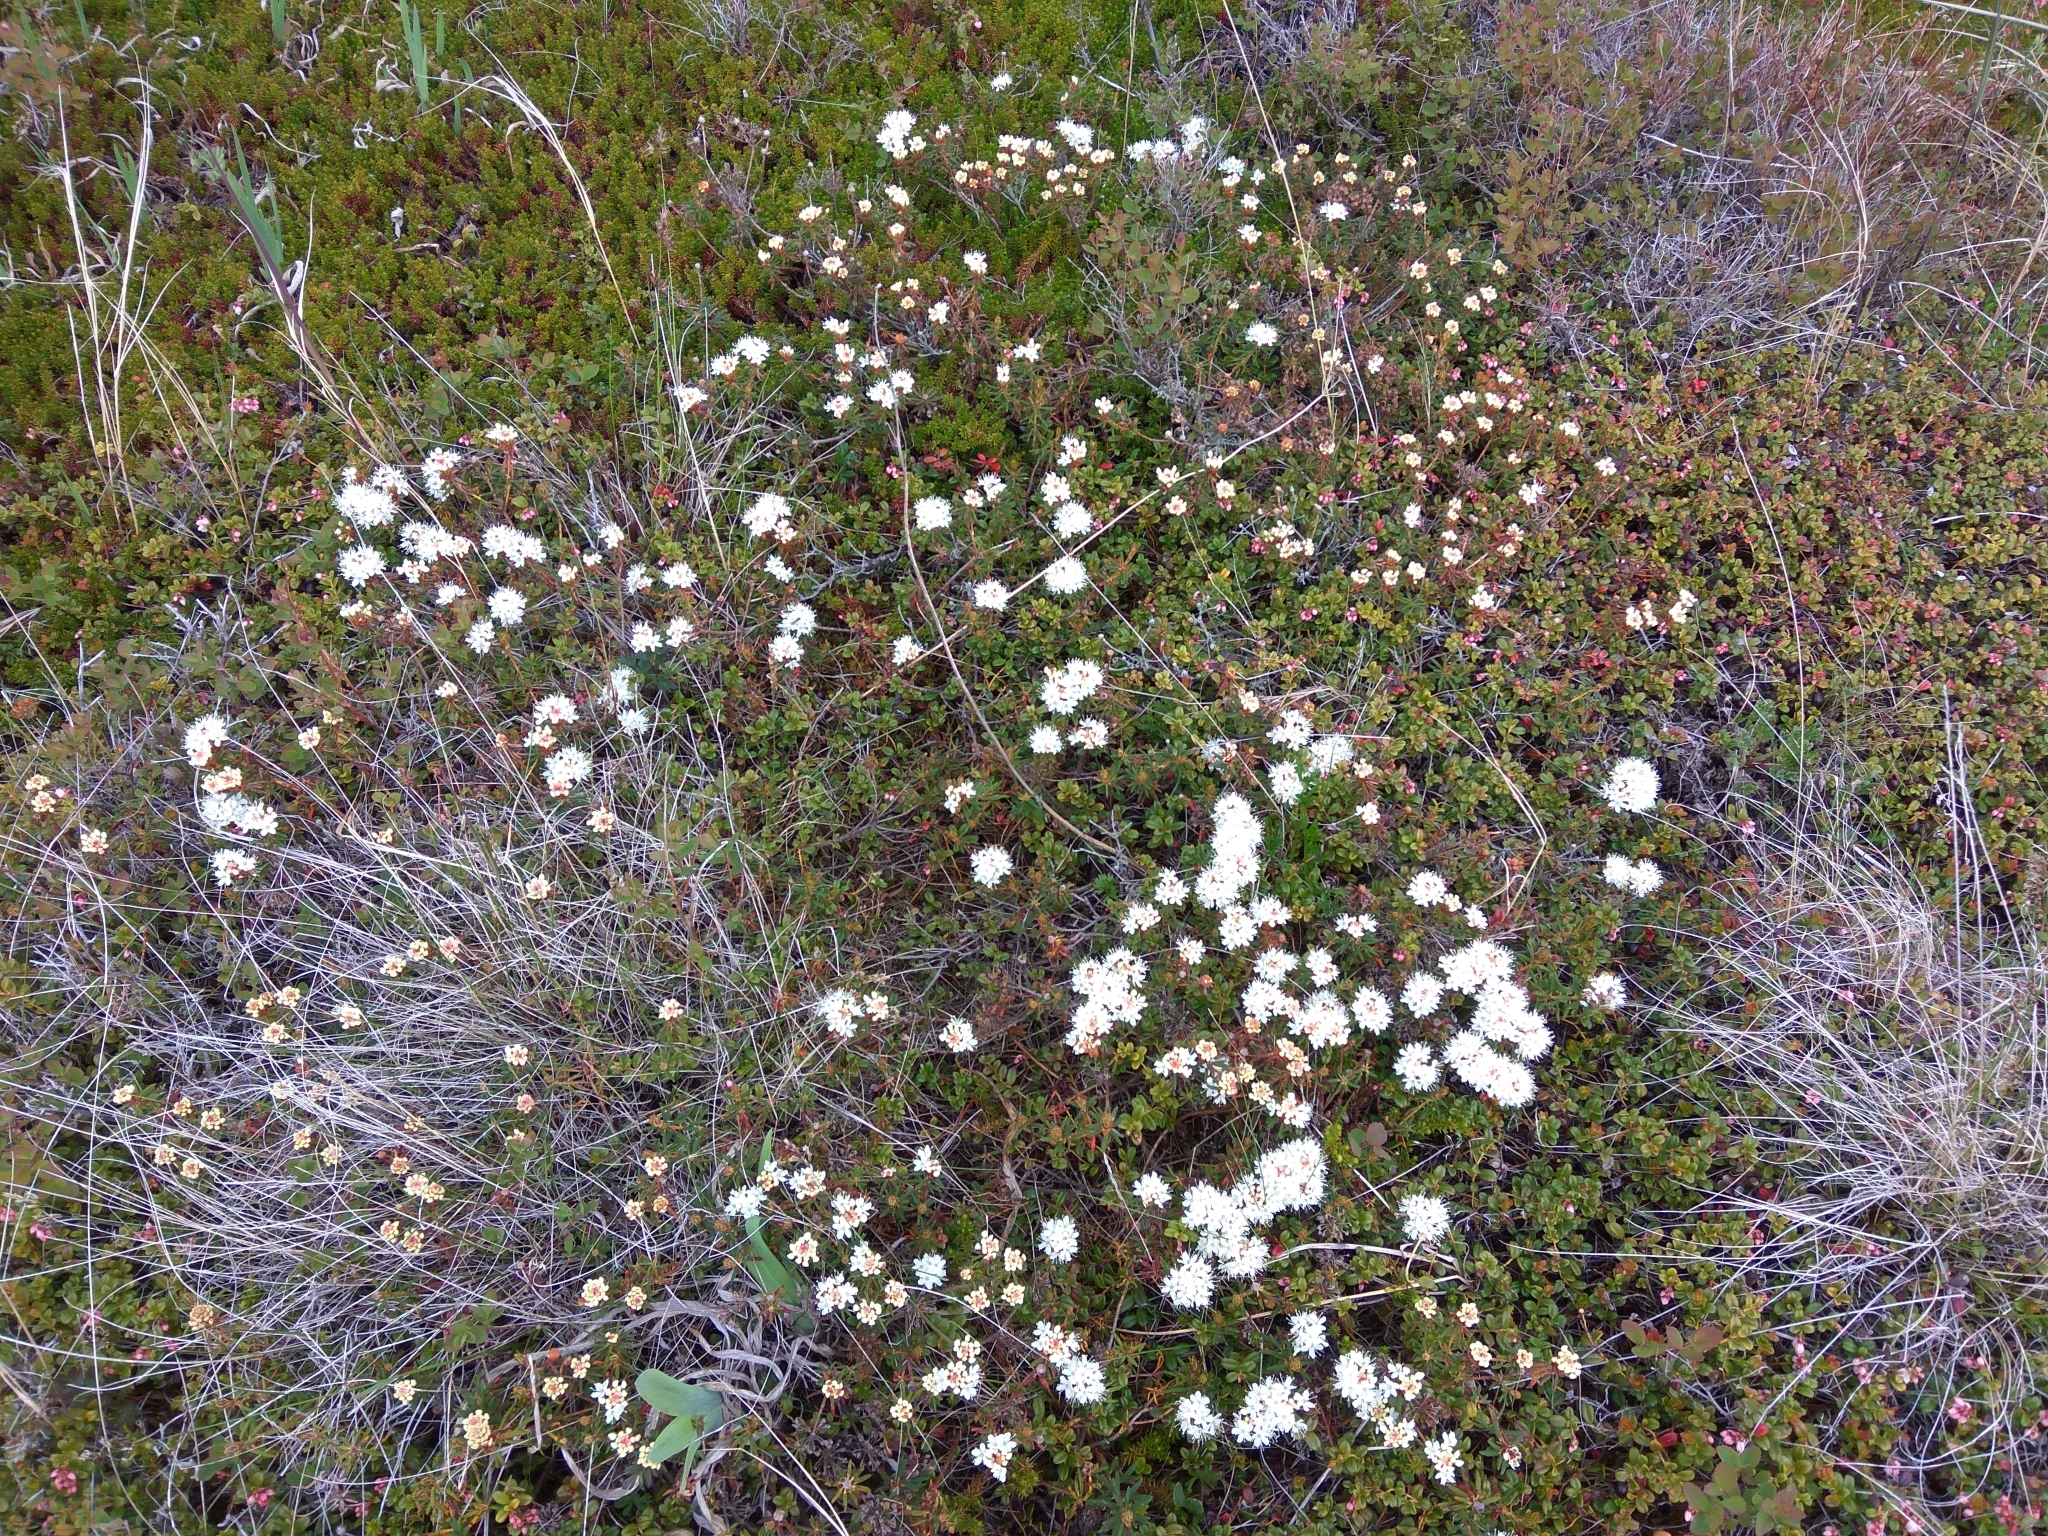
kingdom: Plantae
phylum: Tracheophyta
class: Magnoliopsida
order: Ericales
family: Ericaceae
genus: Rhododendron
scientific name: Rhododendron tomentosum
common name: Marsh labrador tea
